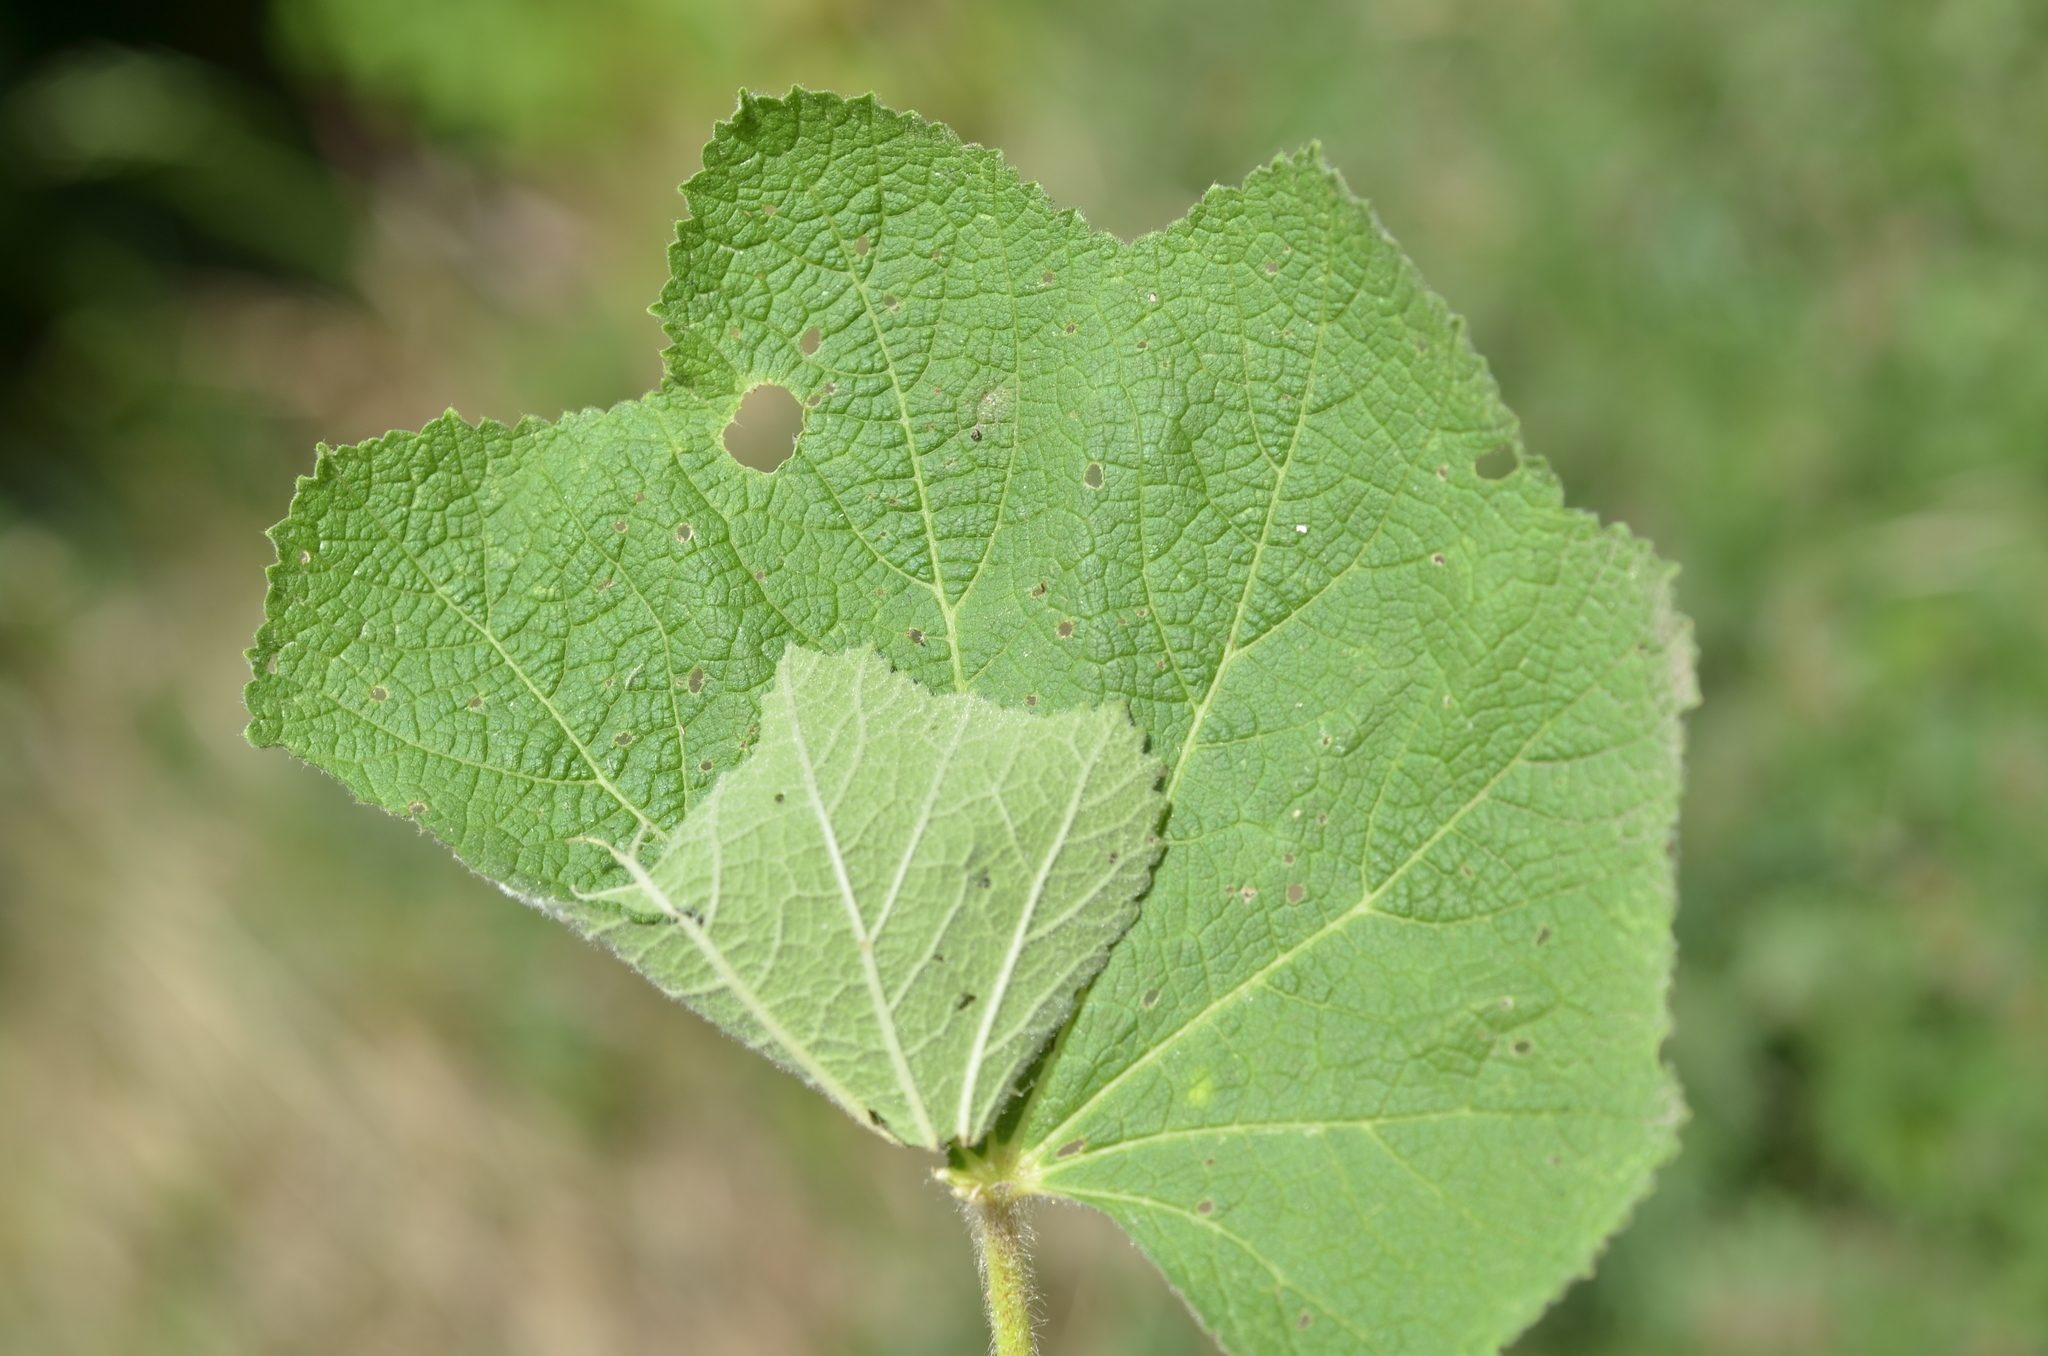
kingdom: Animalia
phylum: Arthropoda
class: Insecta
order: Lepidoptera
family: Hesperiidae
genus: Carcharodus
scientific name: Carcharodus alceae
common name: Mallow skipper
